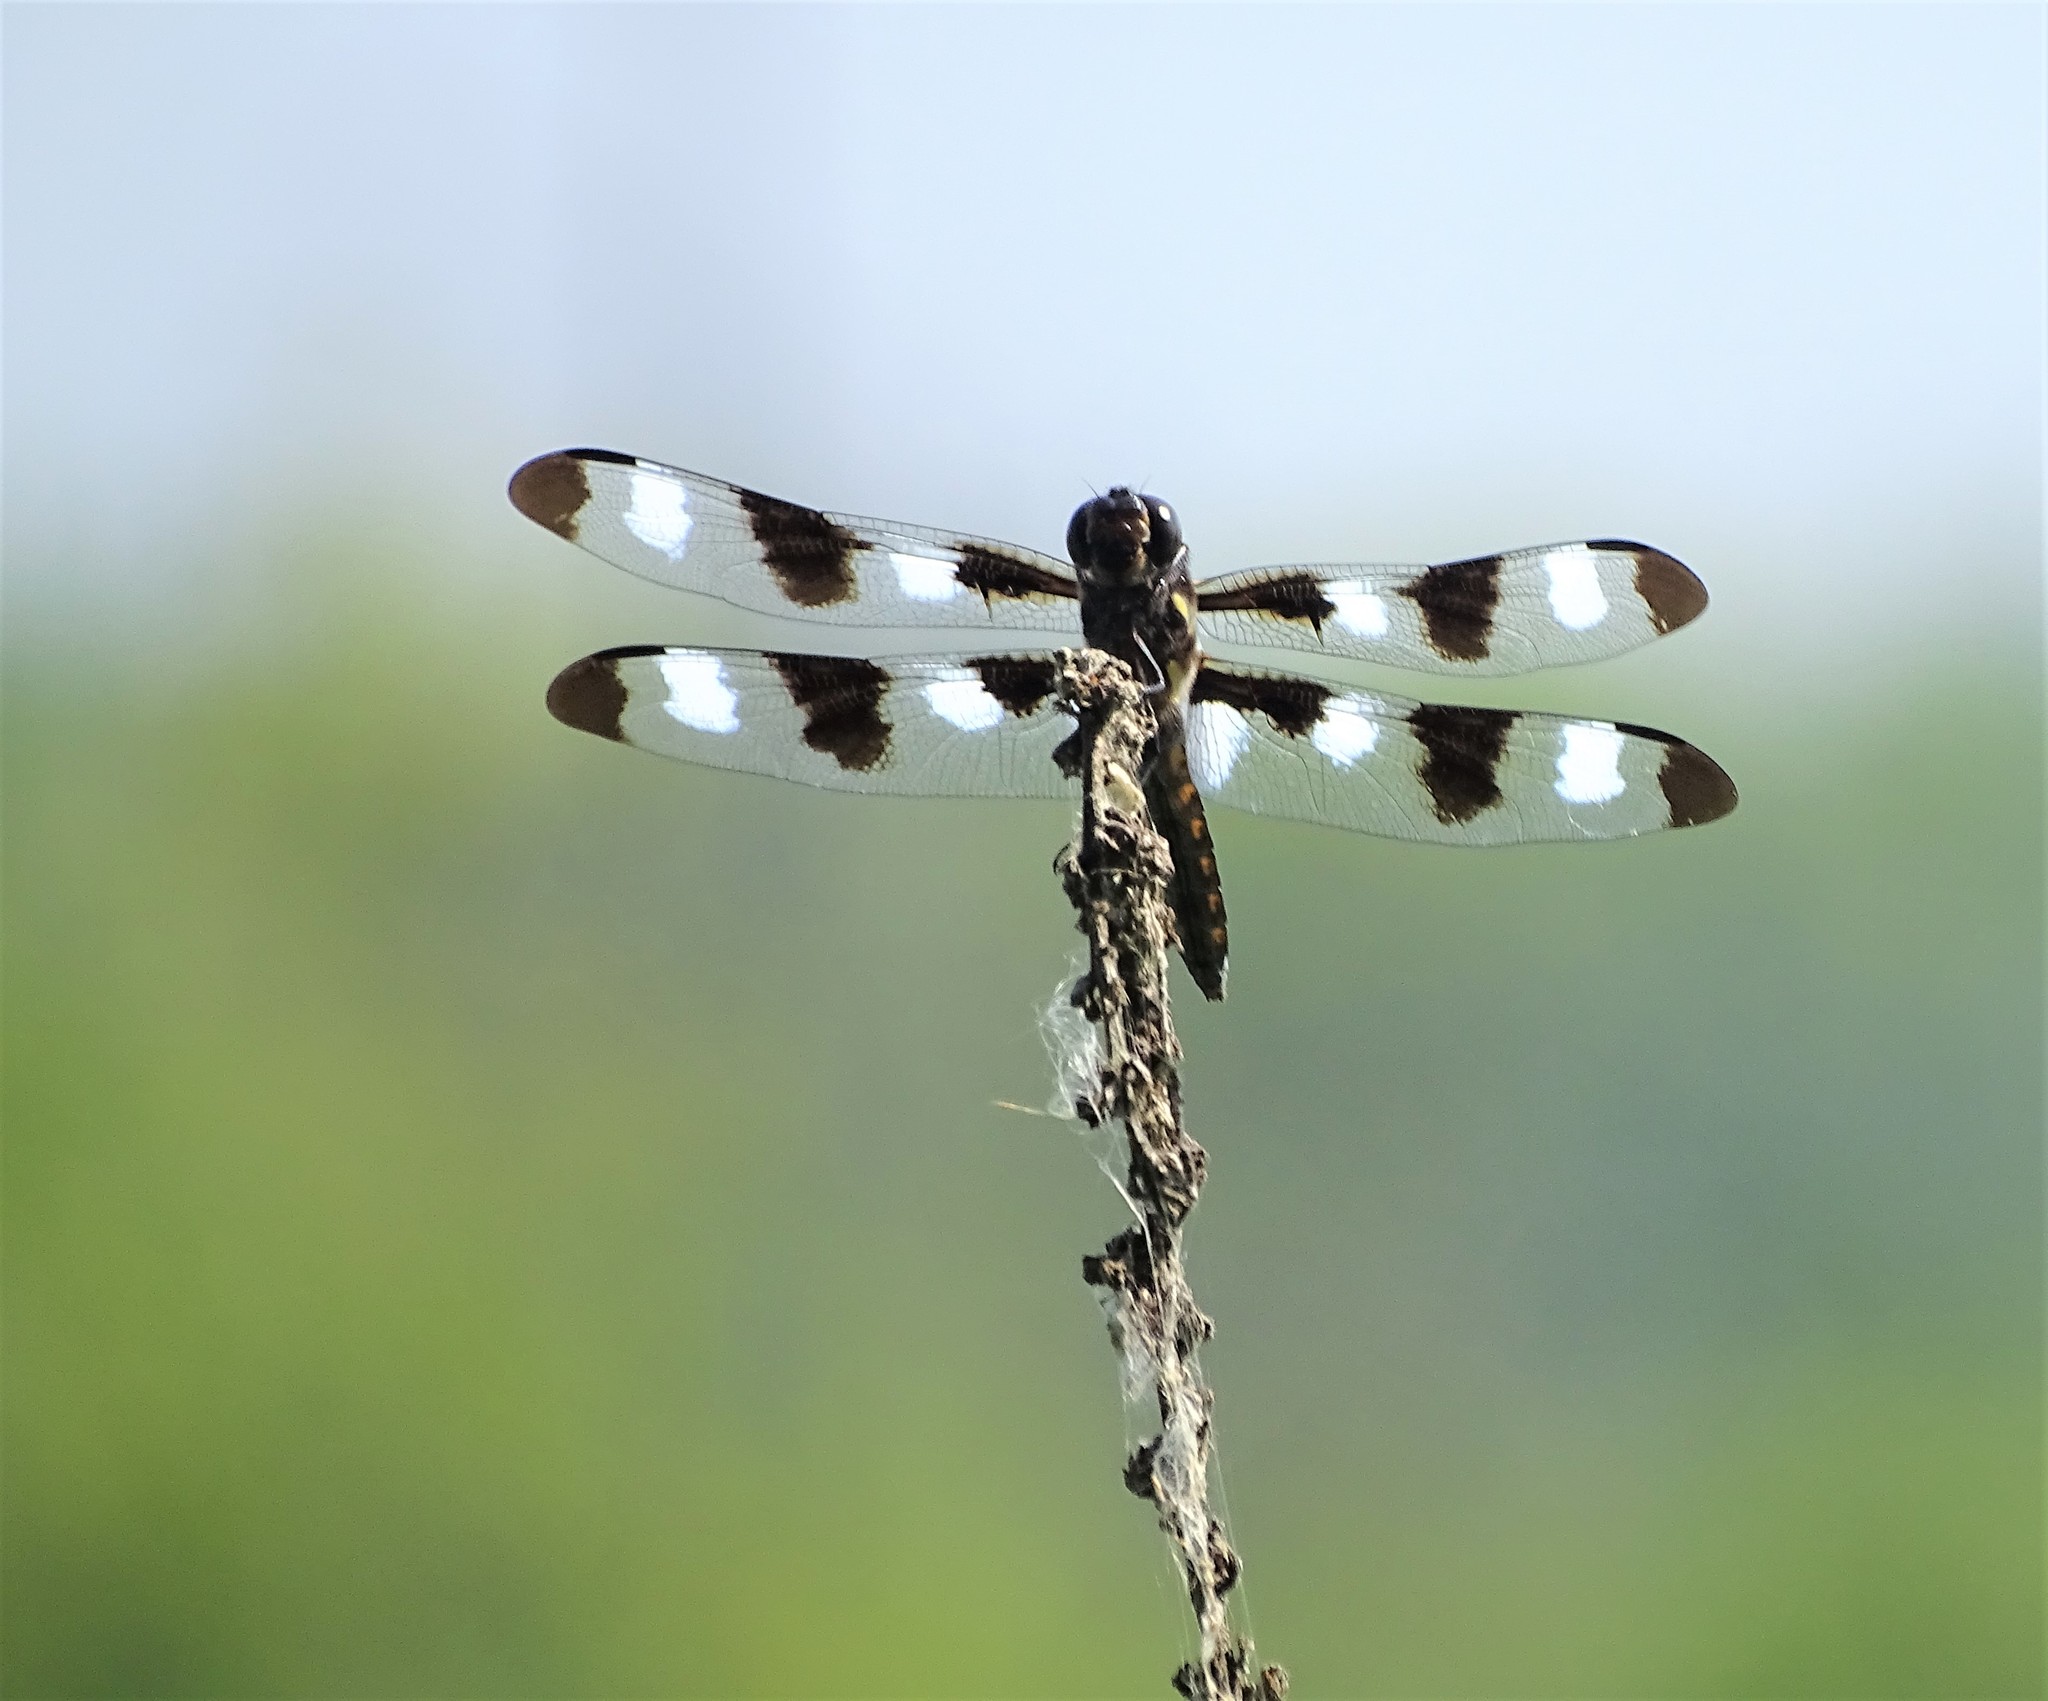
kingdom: Animalia
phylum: Arthropoda
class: Insecta
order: Odonata
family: Libellulidae
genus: Libellula
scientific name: Libellula pulchella
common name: Twelve-spotted skimmer
